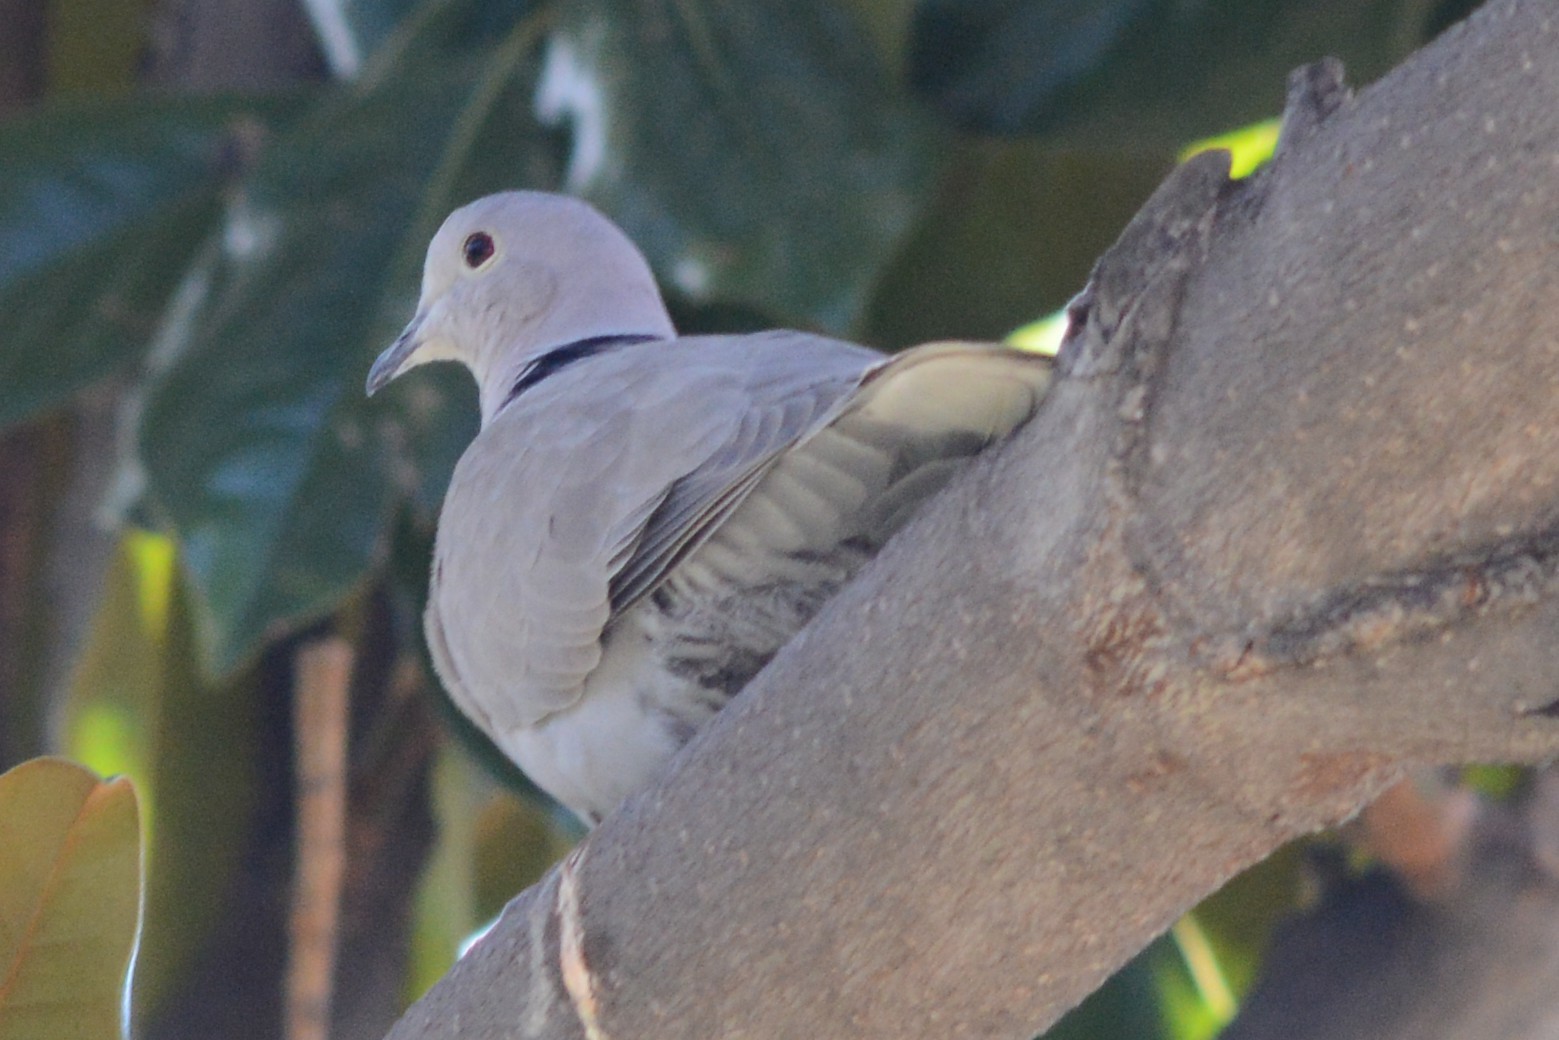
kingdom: Animalia
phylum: Chordata
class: Aves
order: Columbiformes
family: Columbidae
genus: Streptopelia
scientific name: Streptopelia decaocto
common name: Eurasian collared dove
